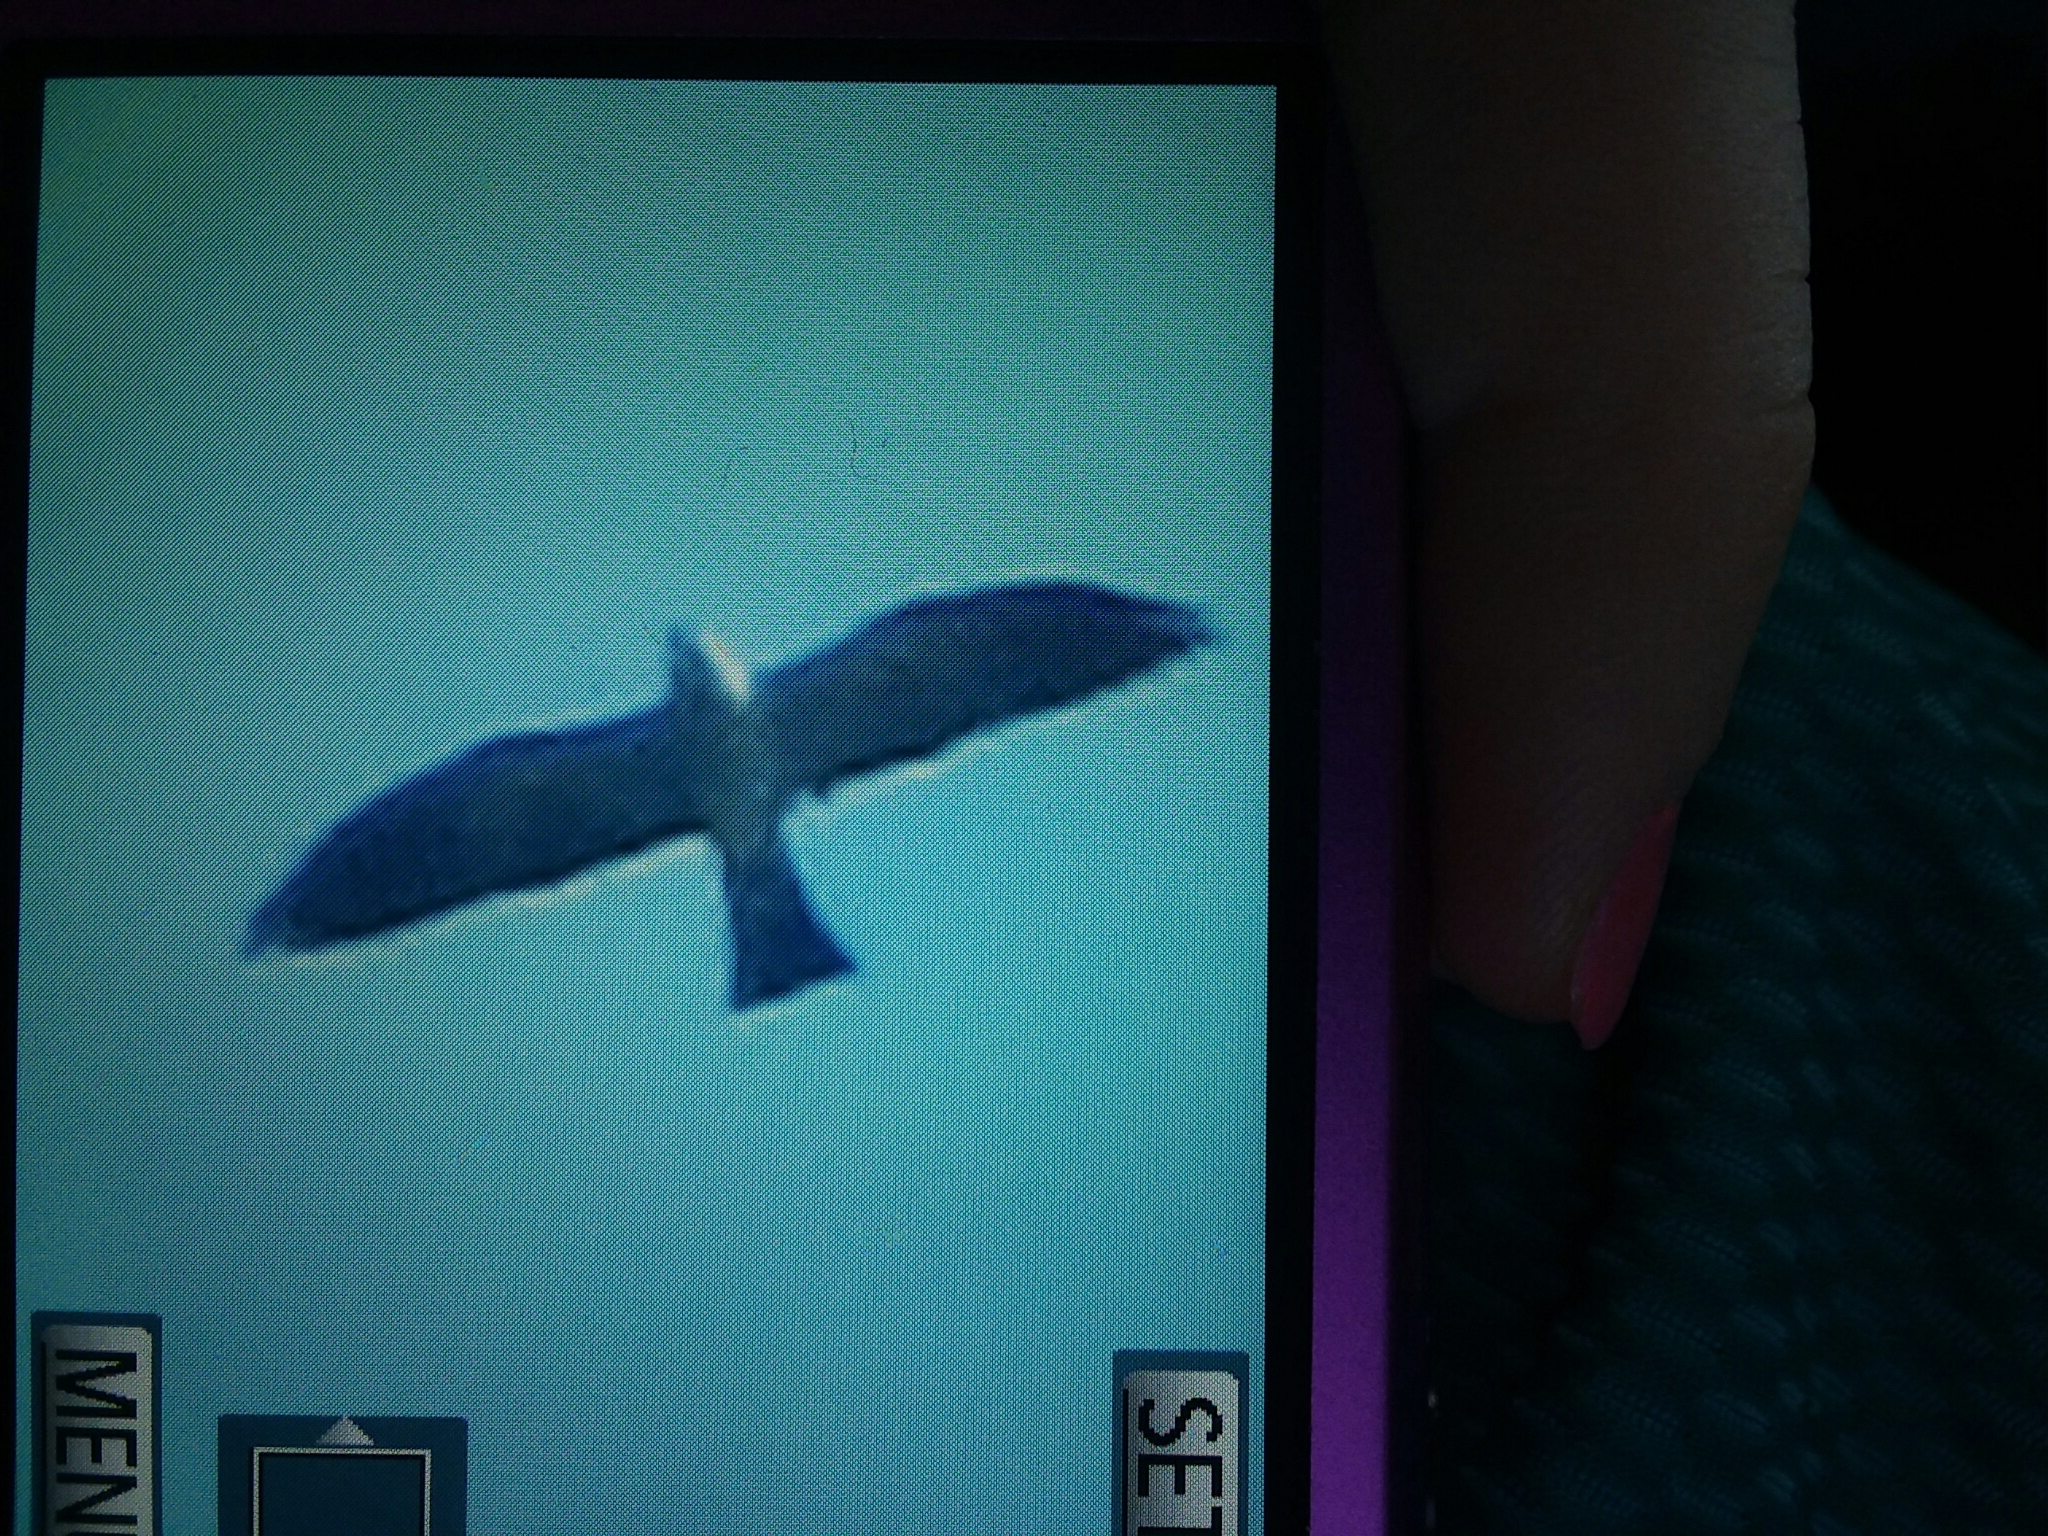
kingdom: Animalia
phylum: Chordata
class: Aves
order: Accipitriformes
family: Accipitridae
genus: Ictinia
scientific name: Ictinia mississippiensis
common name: Mississippi kite
